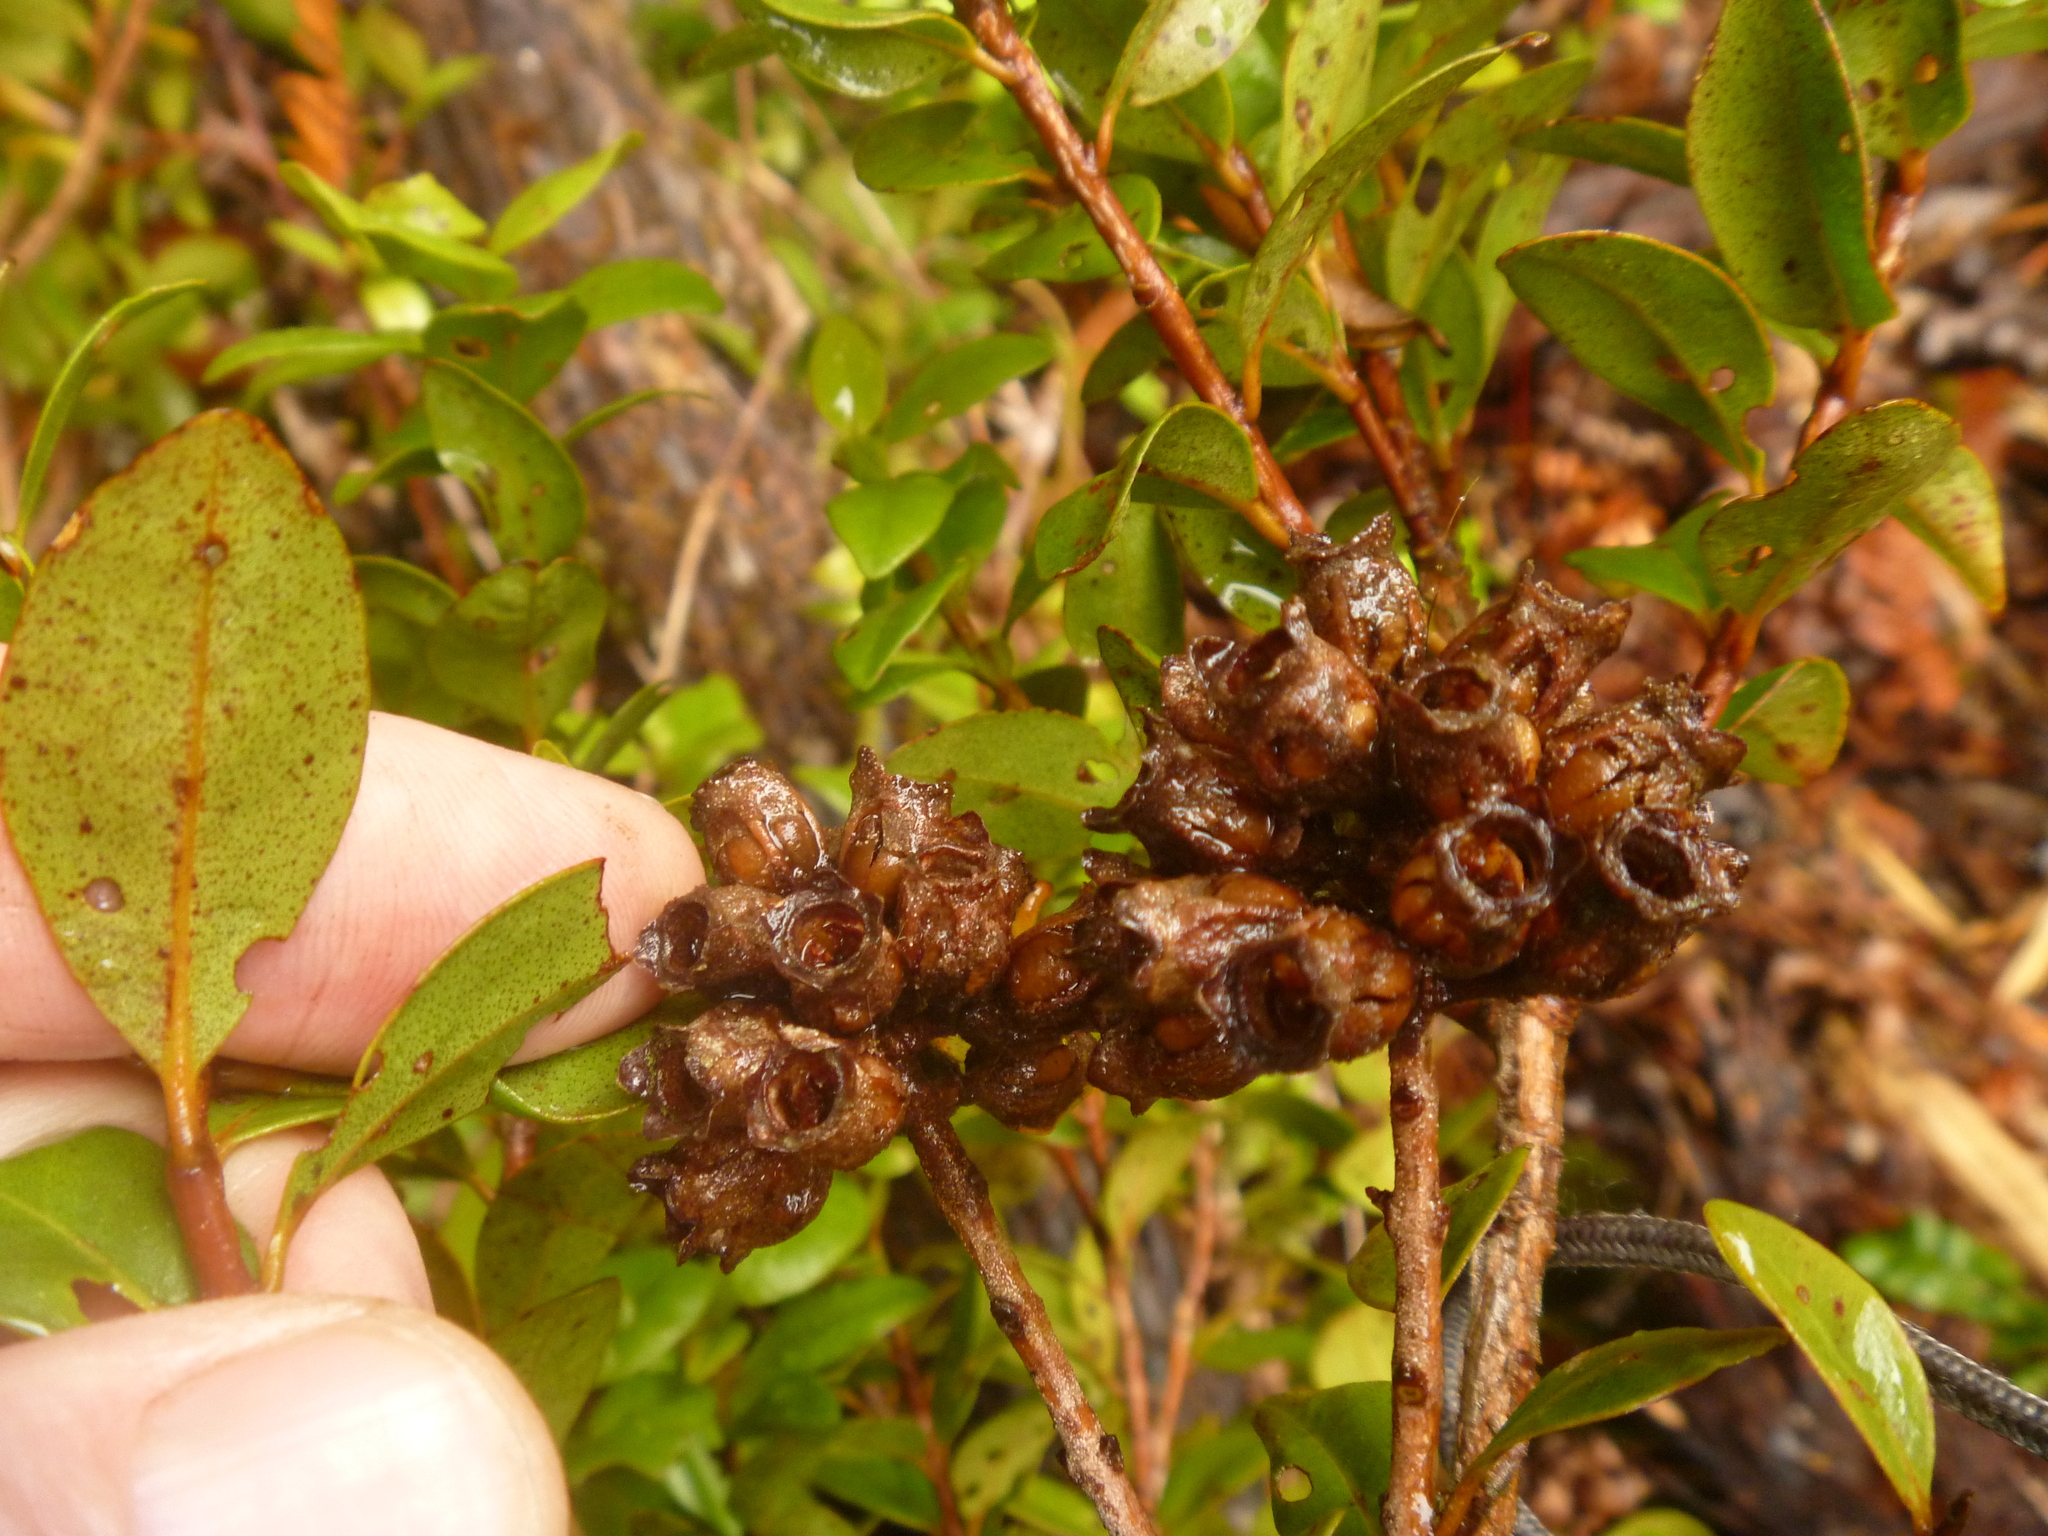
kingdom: Plantae
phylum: Tracheophyta
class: Magnoliopsida
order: Myrtales
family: Myrtaceae
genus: Metrosideros
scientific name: Metrosideros fulgens
